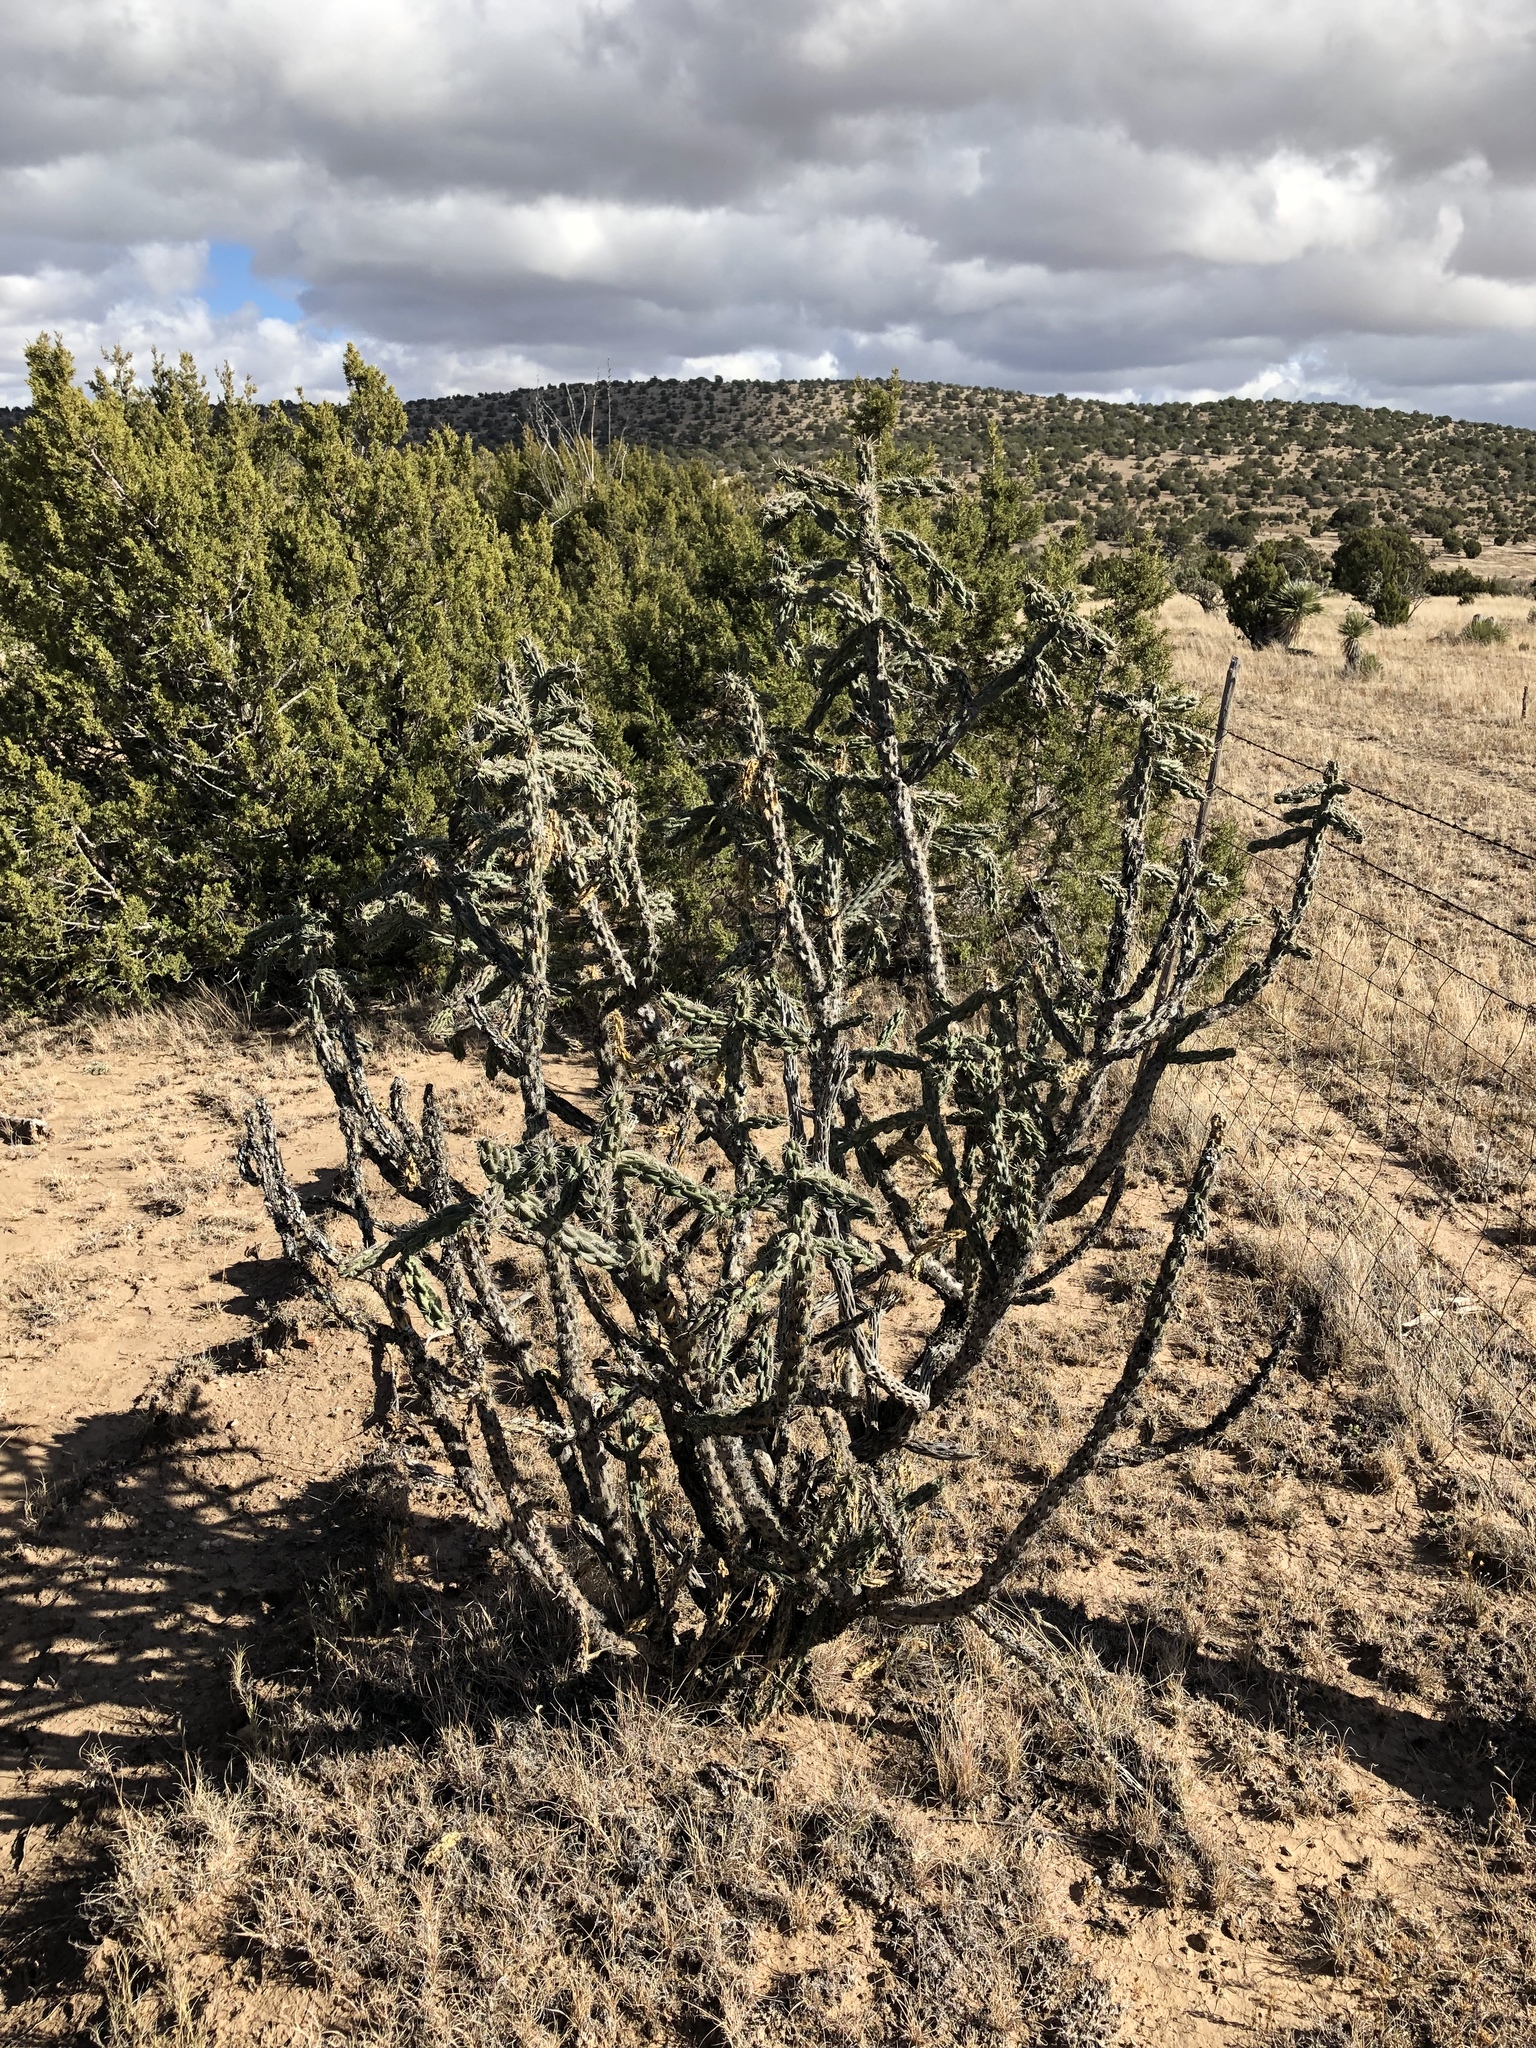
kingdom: Plantae
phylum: Tracheophyta
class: Magnoliopsida
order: Caryophyllales
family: Cactaceae
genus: Cylindropuntia
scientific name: Cylindropuntia imbricata
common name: Candelabrum cactus
